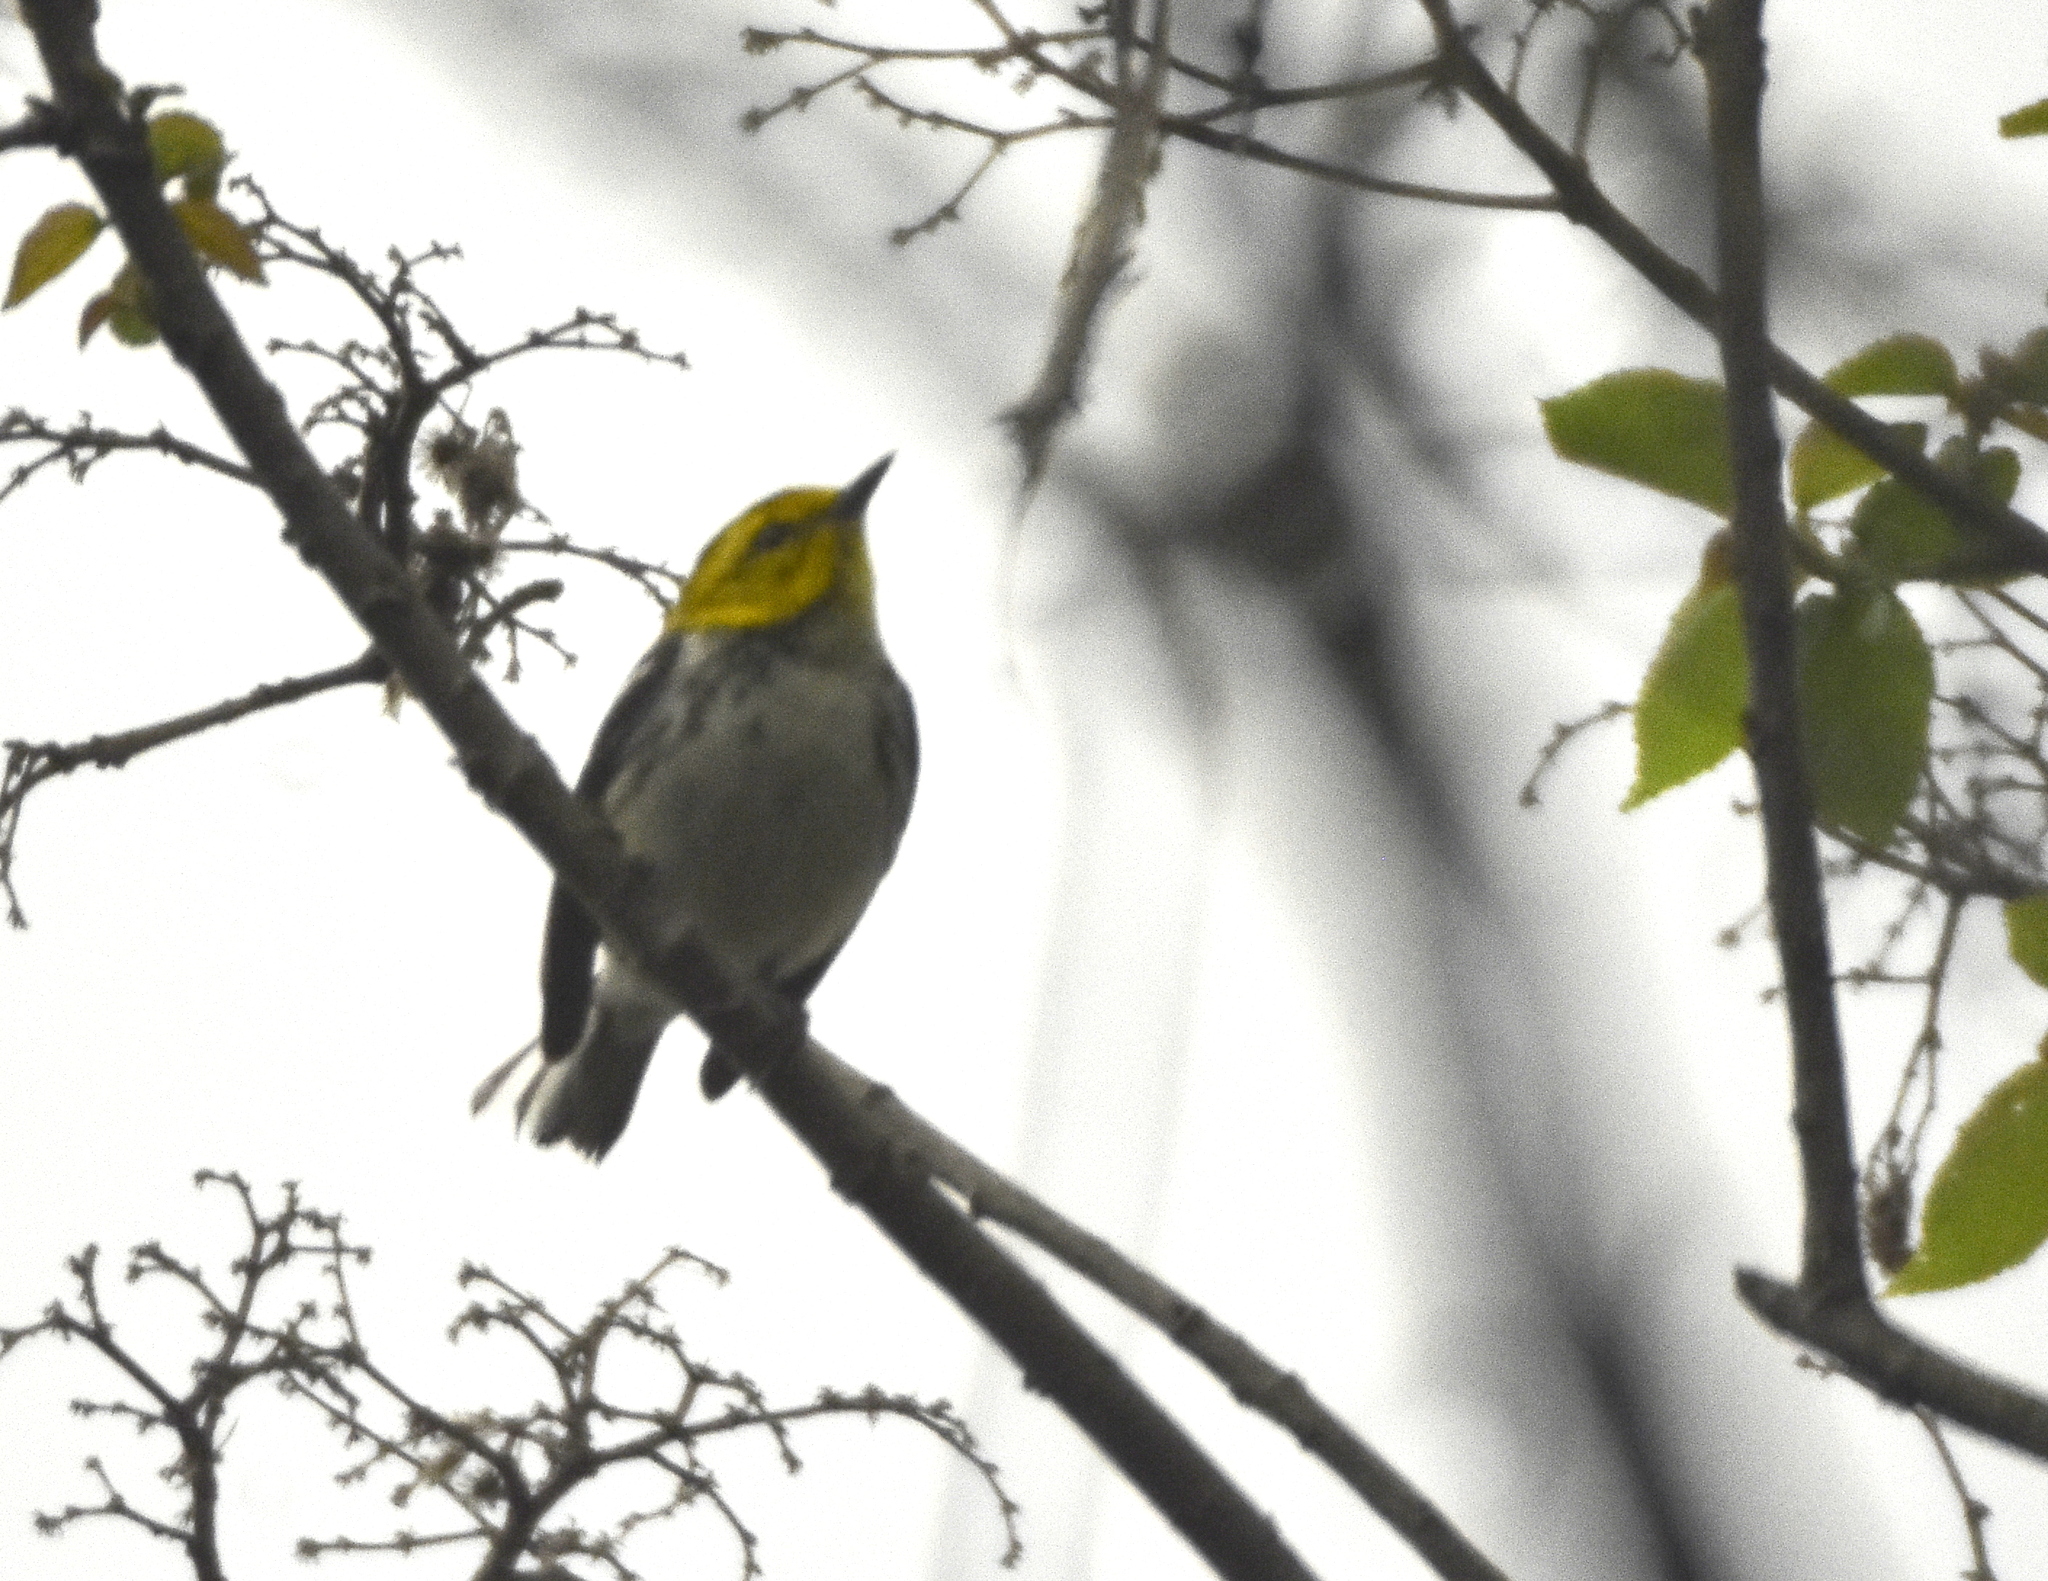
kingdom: Animalia
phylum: Chordata
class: Aves
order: Passeriformes
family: Parulidae
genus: Setophaga
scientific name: Setophaga virens
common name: Black-throated green warbler
